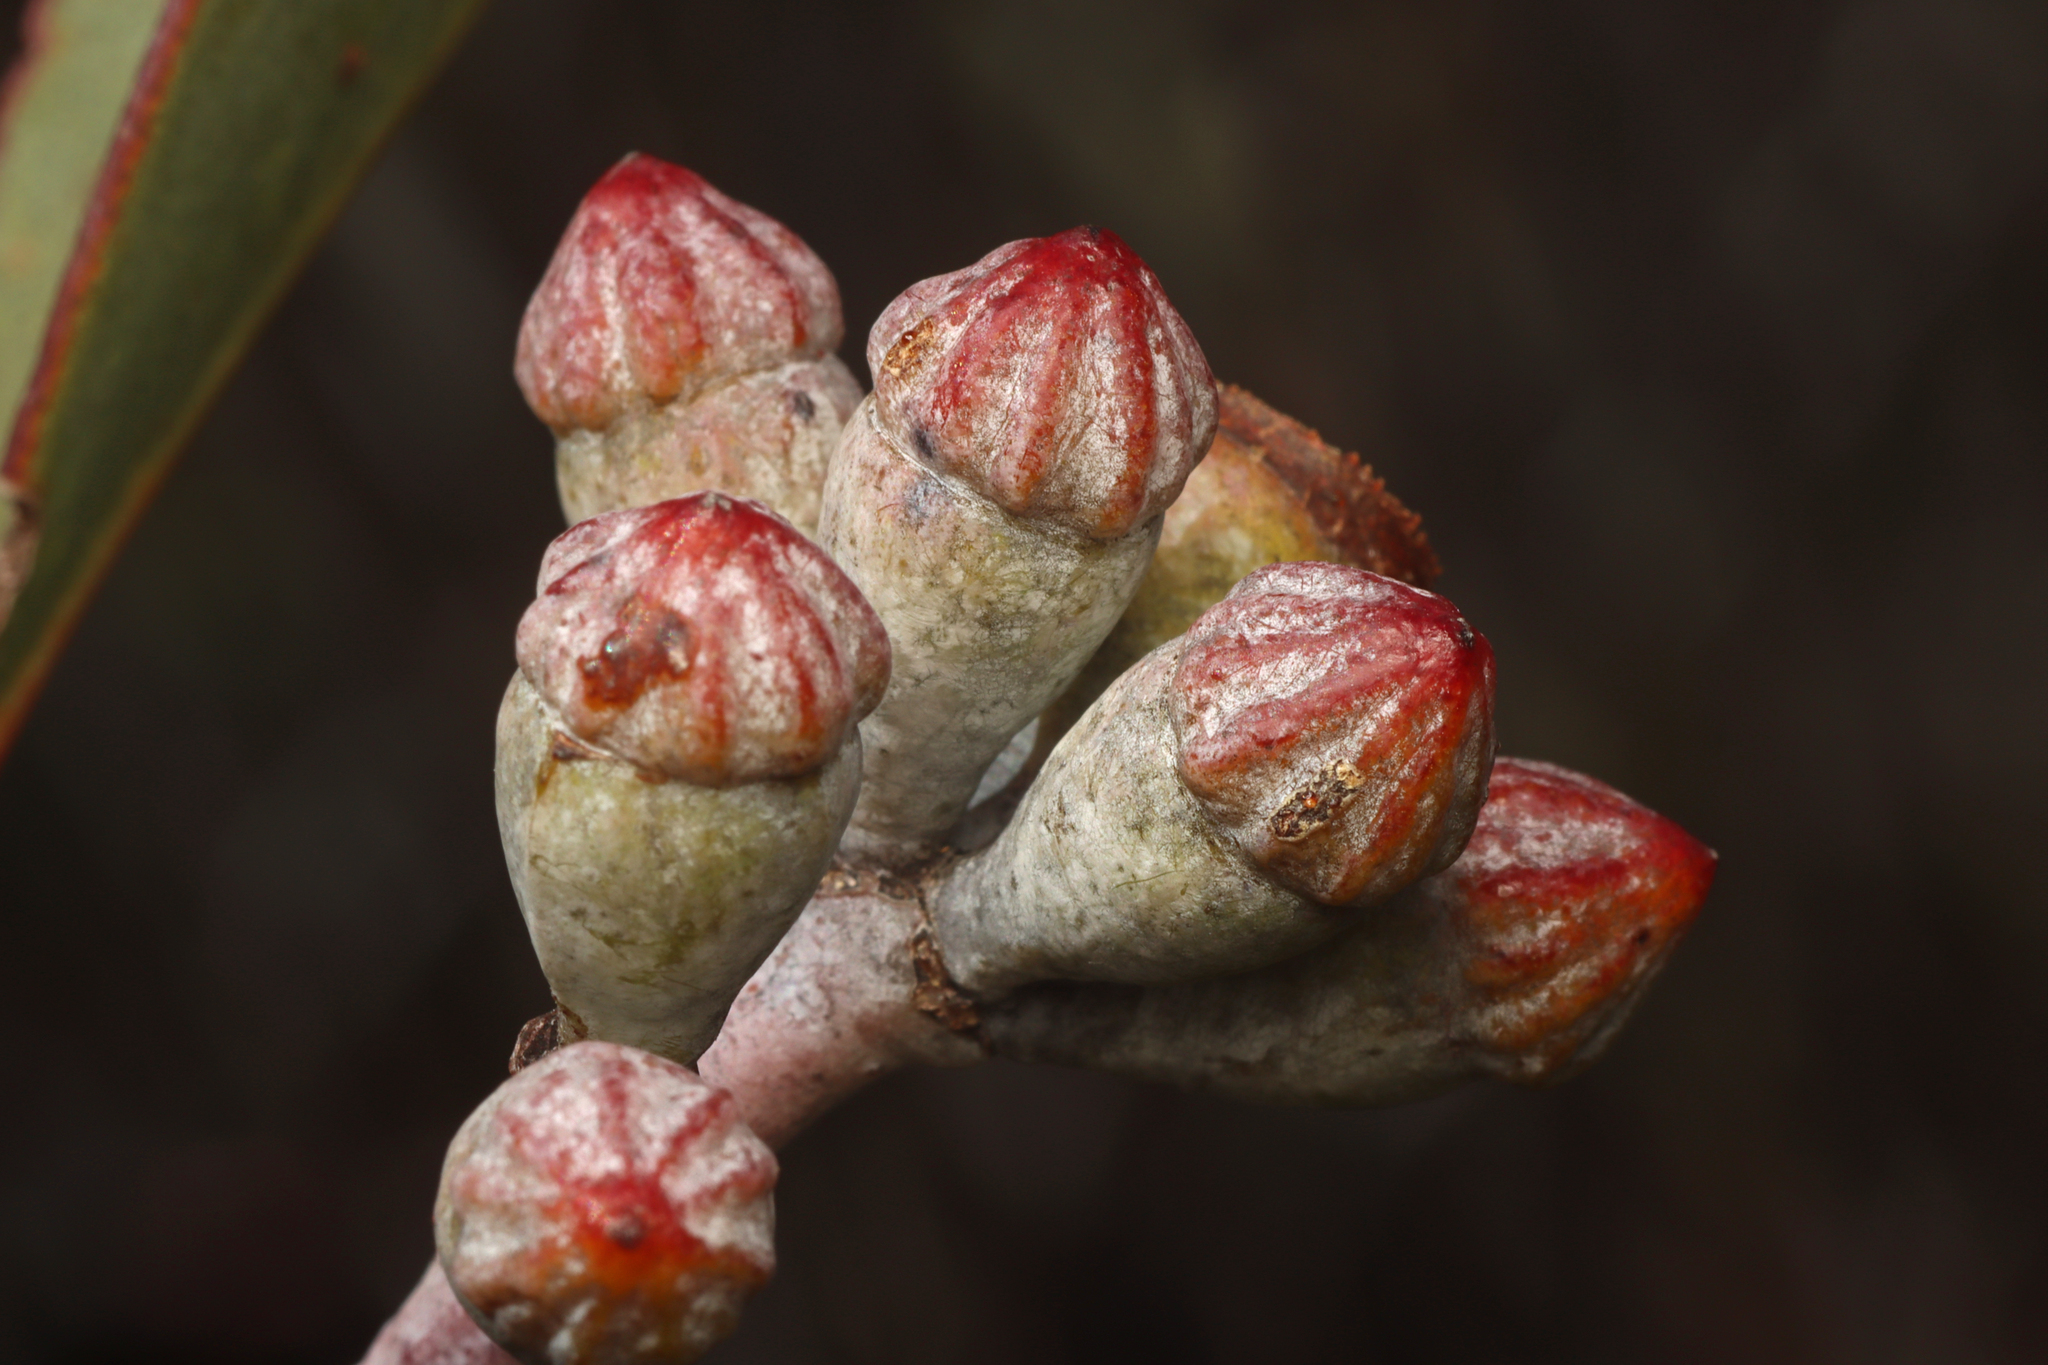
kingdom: Plantae
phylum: Tracheophyta
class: Magnoliopsida
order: Myrtales
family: Myrtaceae
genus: Eucalyptus
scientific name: Eucalyptus cretata
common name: Darke peak mallee
